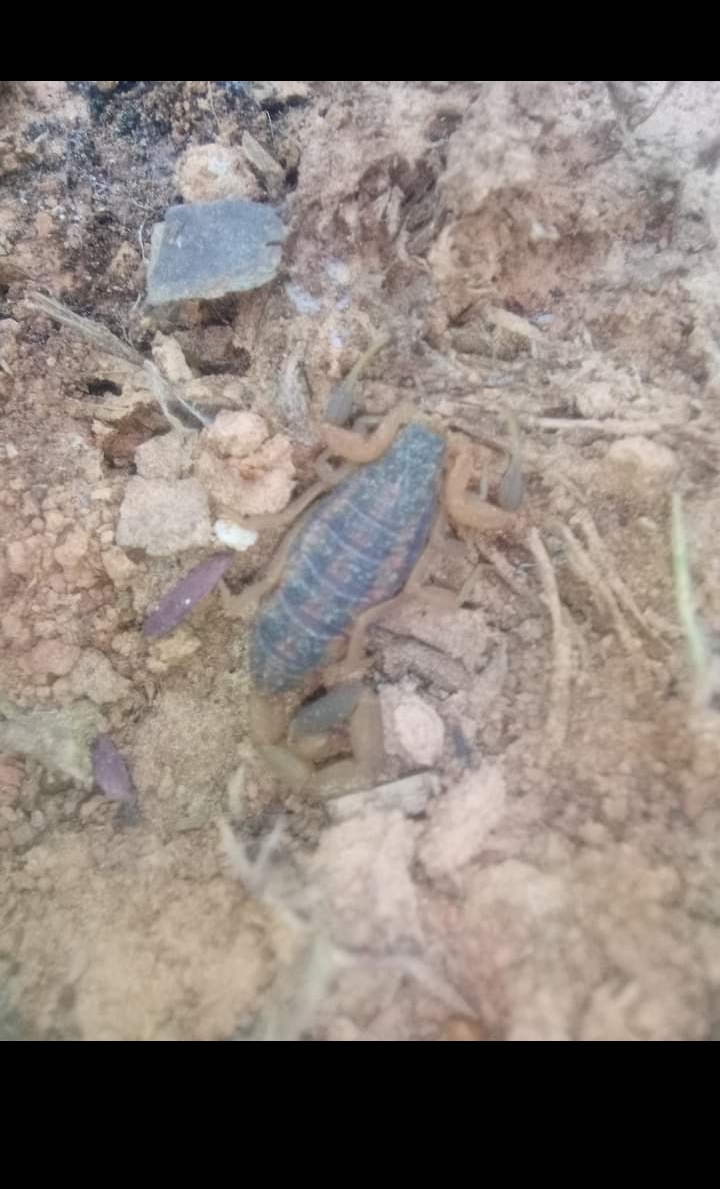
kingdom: Animalia
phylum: Arthropoda
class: Arachnida
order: Scorpiones
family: Buthidae
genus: Centruroides
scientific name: Centruroides vittatus
